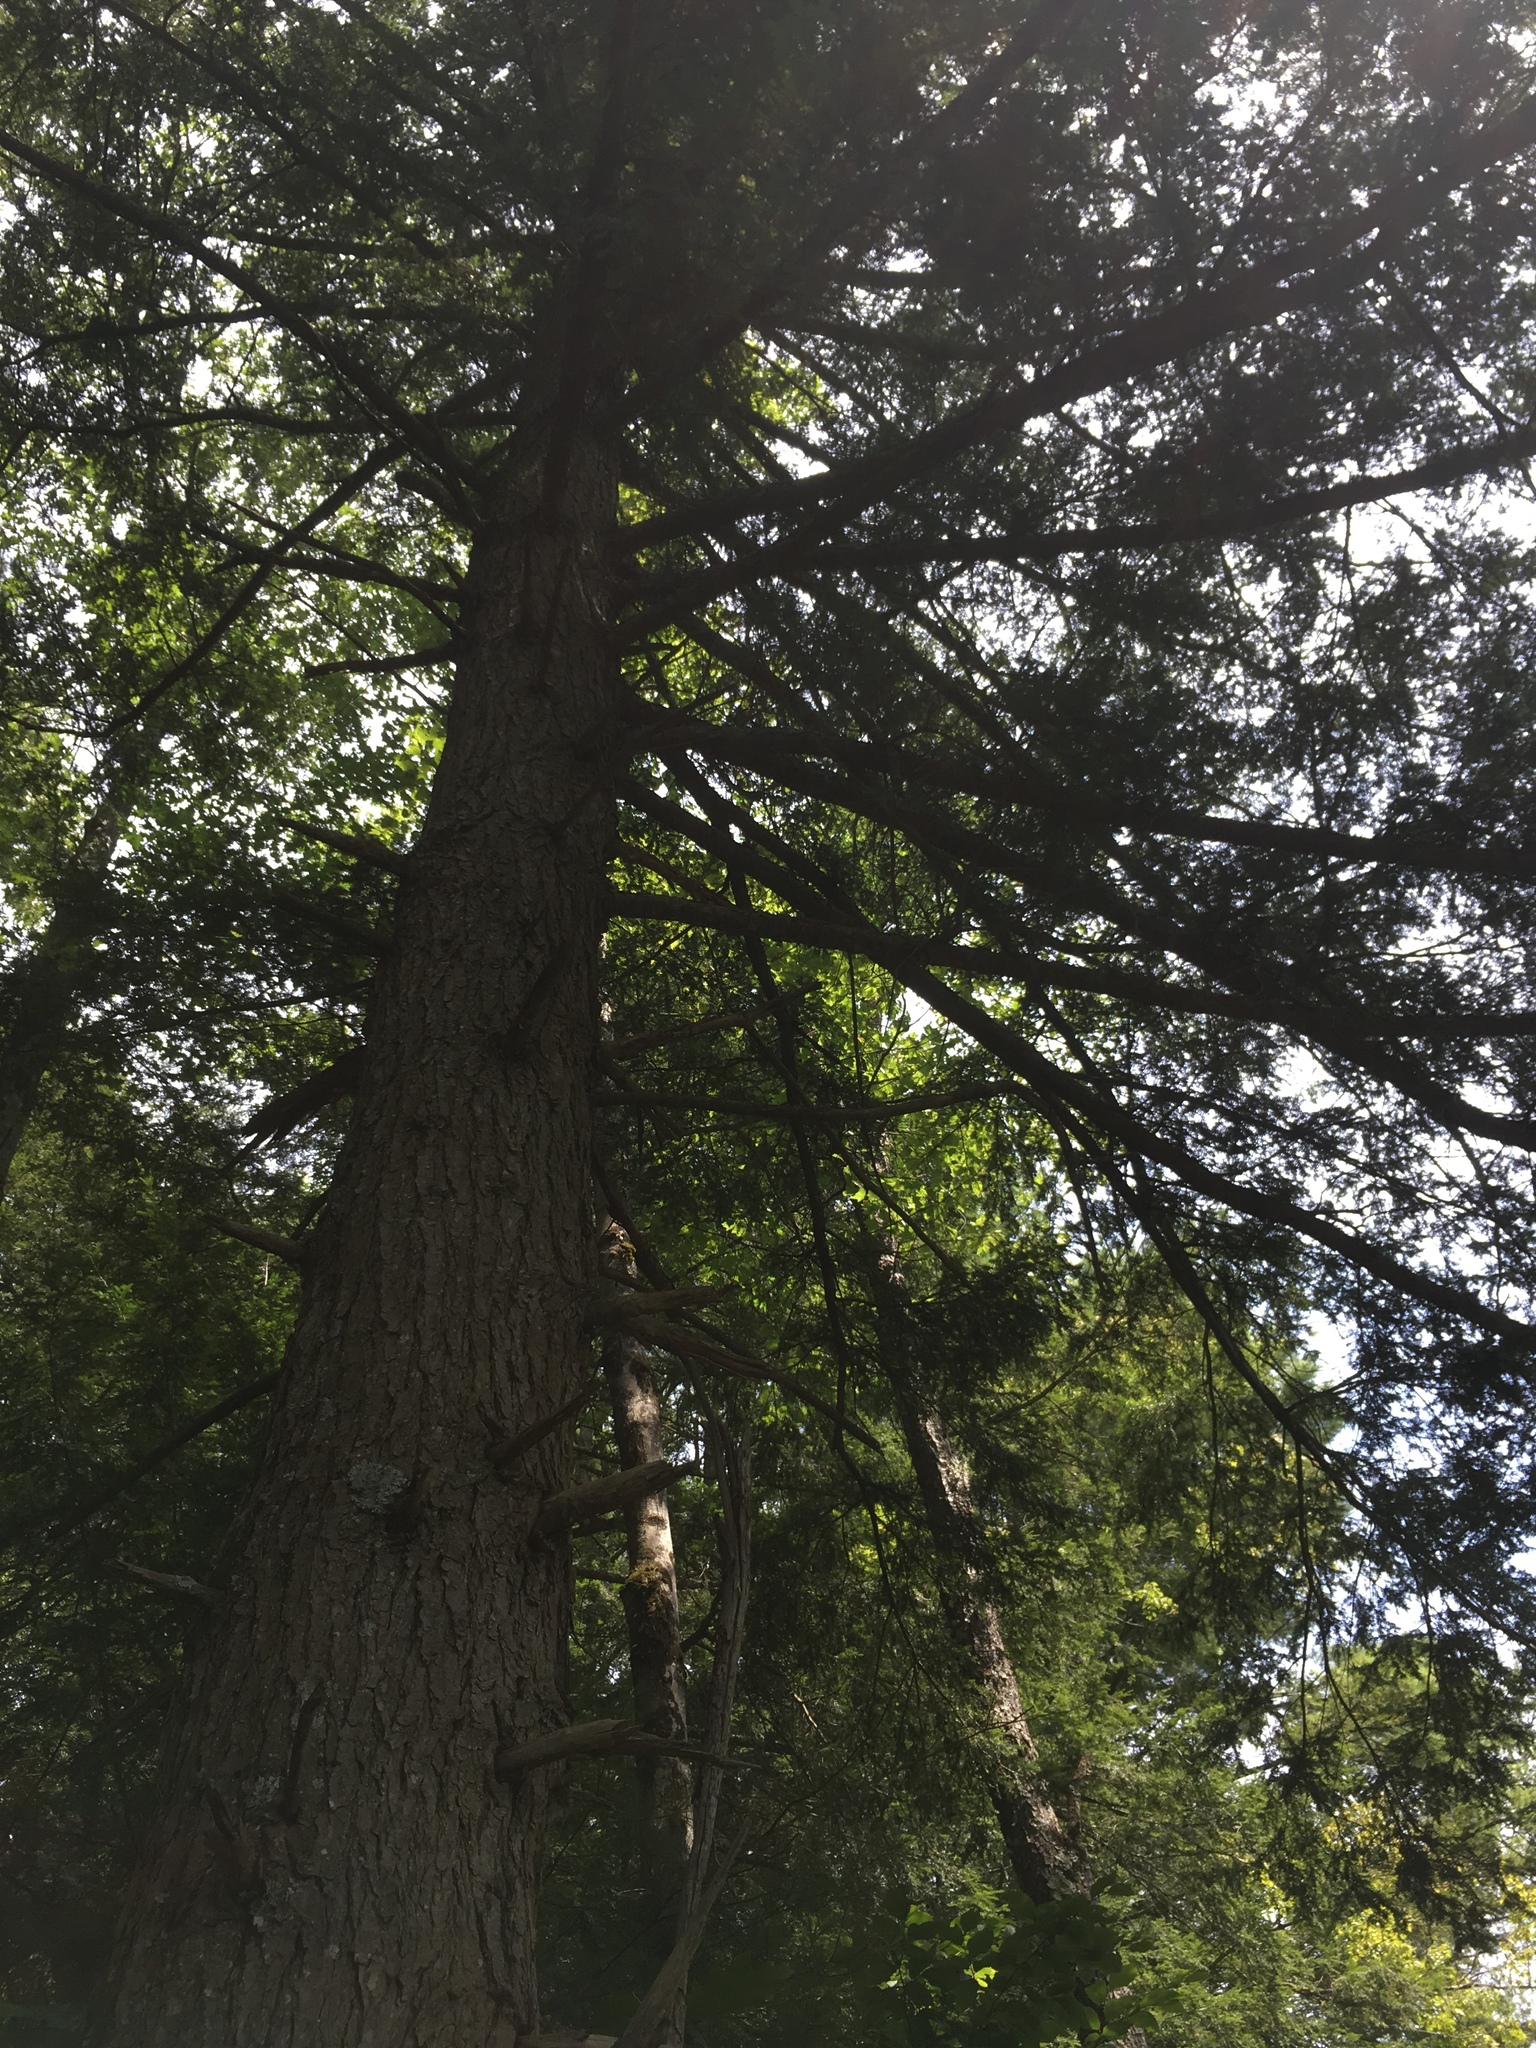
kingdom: Plantae
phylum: Tracheophyta
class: Pinopsida
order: Pinales
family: Pinaceae
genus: Tsuga
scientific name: Tsuga canadensis
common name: Eastern hemlock
